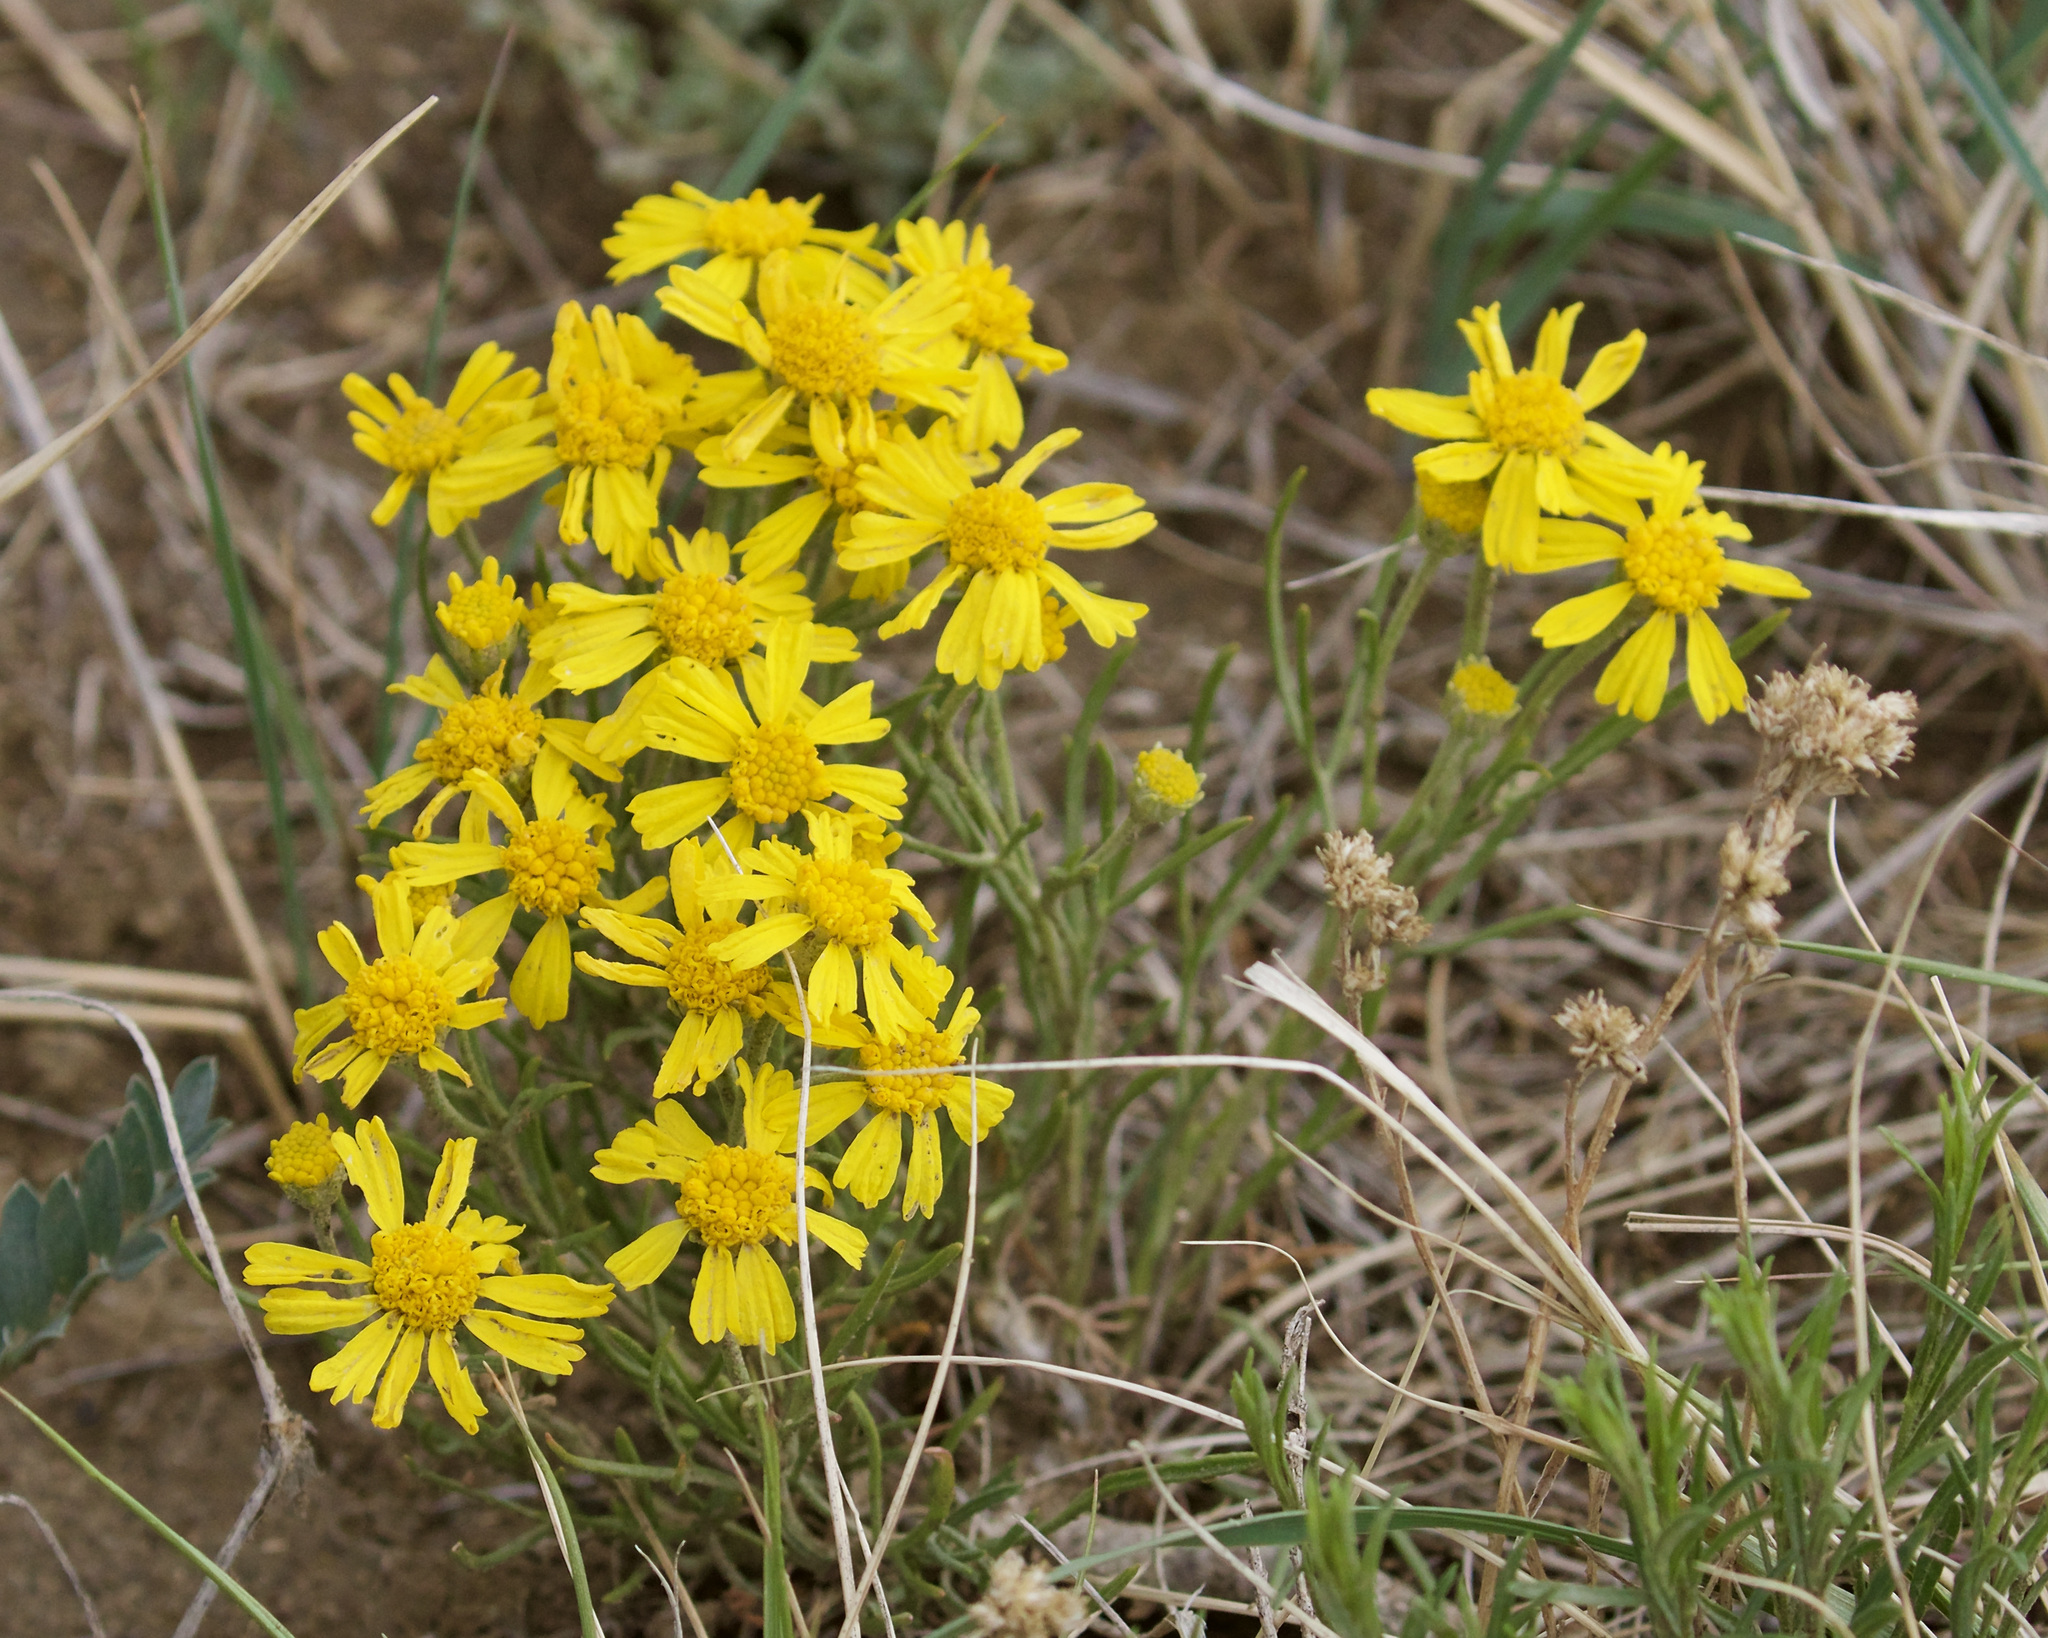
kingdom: Plantae
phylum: Tracheophyta
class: Magnoliopsida
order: Asterales
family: Asteraceae
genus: Hymenoxys
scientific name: Hymenoxys richardsonii
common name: Pingue rubberweed
